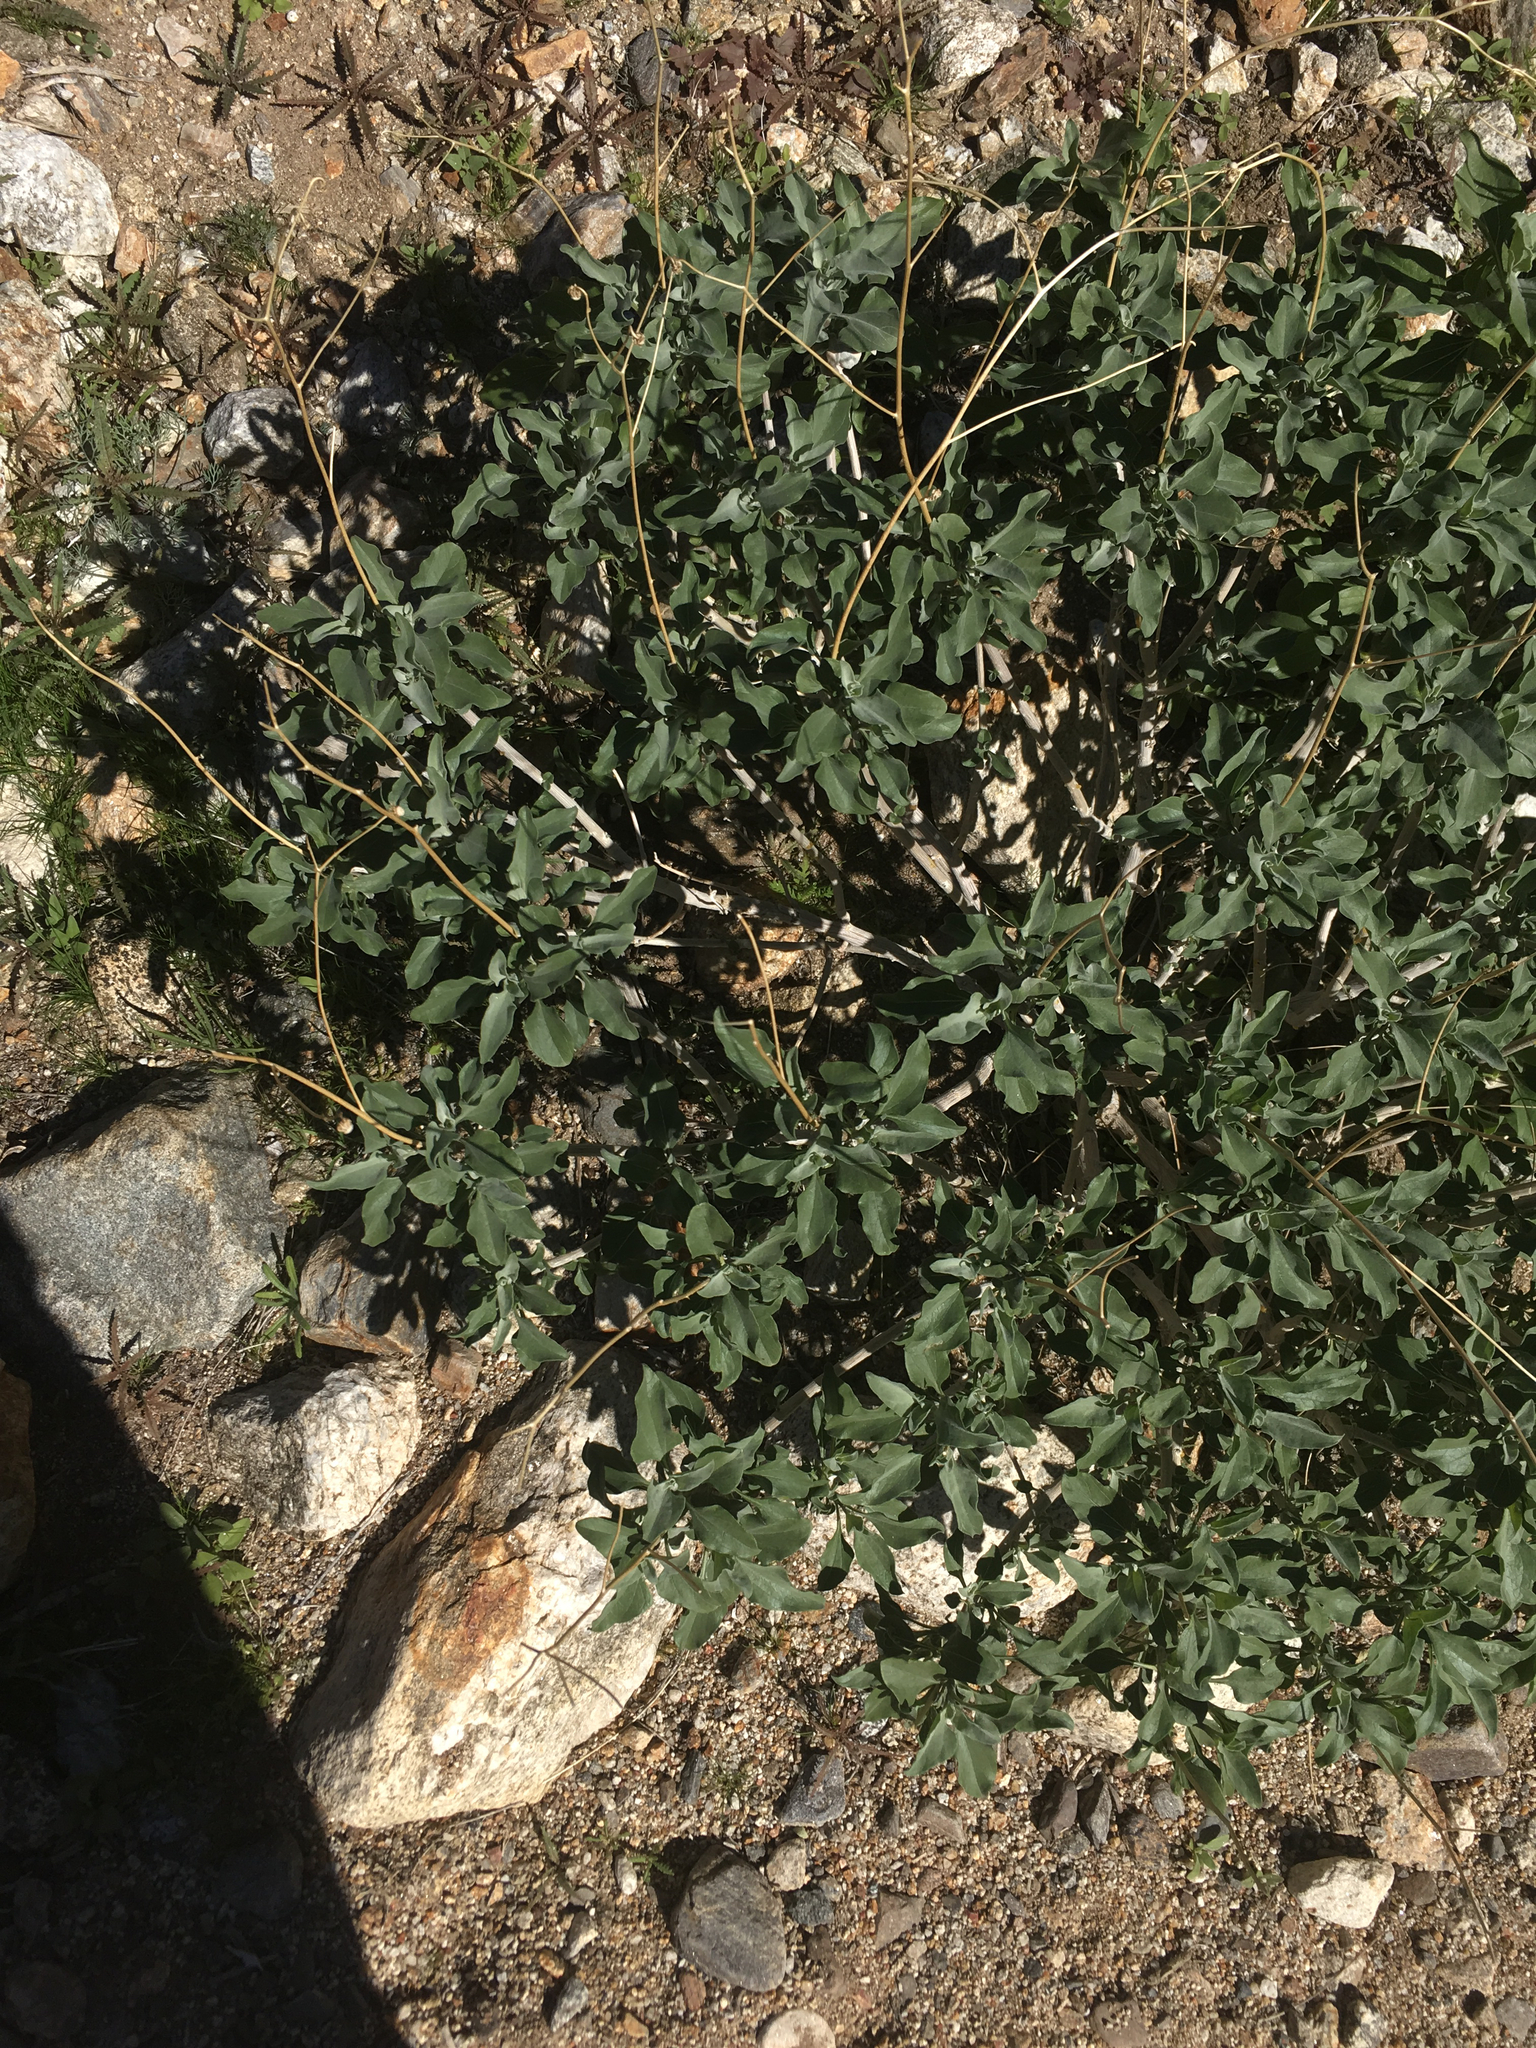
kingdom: Plantae
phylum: Tracheophyta
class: Magnoliopsida
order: Asterales
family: Asteraceae
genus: Encelia
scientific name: Encelia farinosa
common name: Brittlebush
